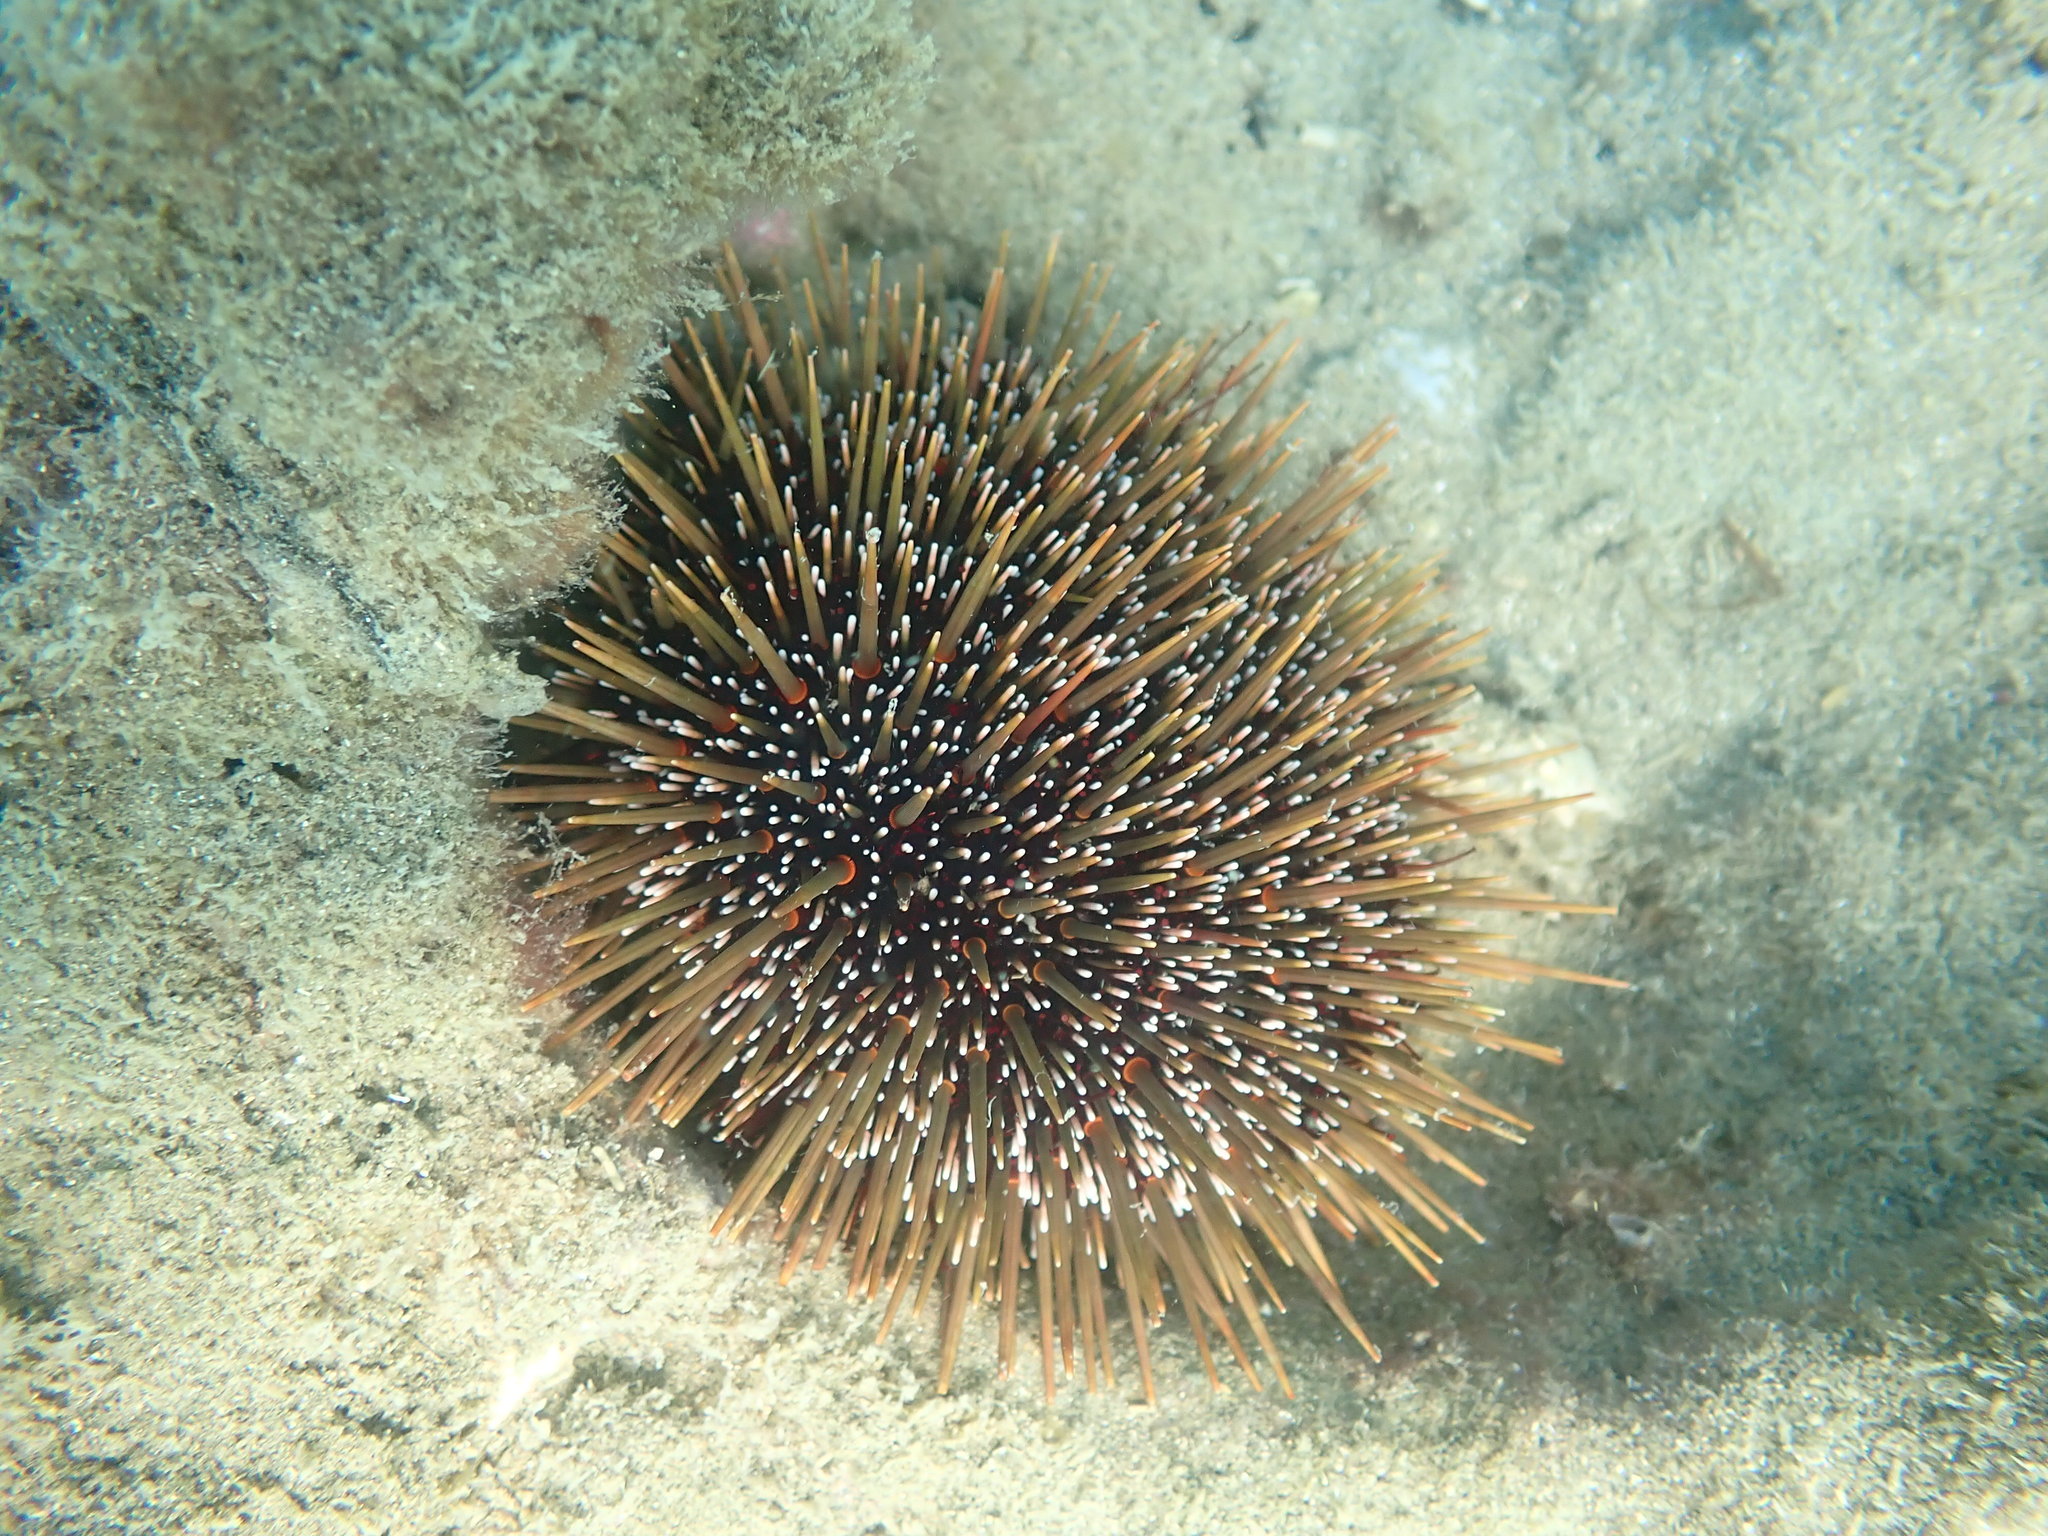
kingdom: Animalia
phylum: Echinodermata
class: Echinoidea
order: Camarodonta
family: Echinometridae
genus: Evechinus
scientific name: Evechinus chloroticus
